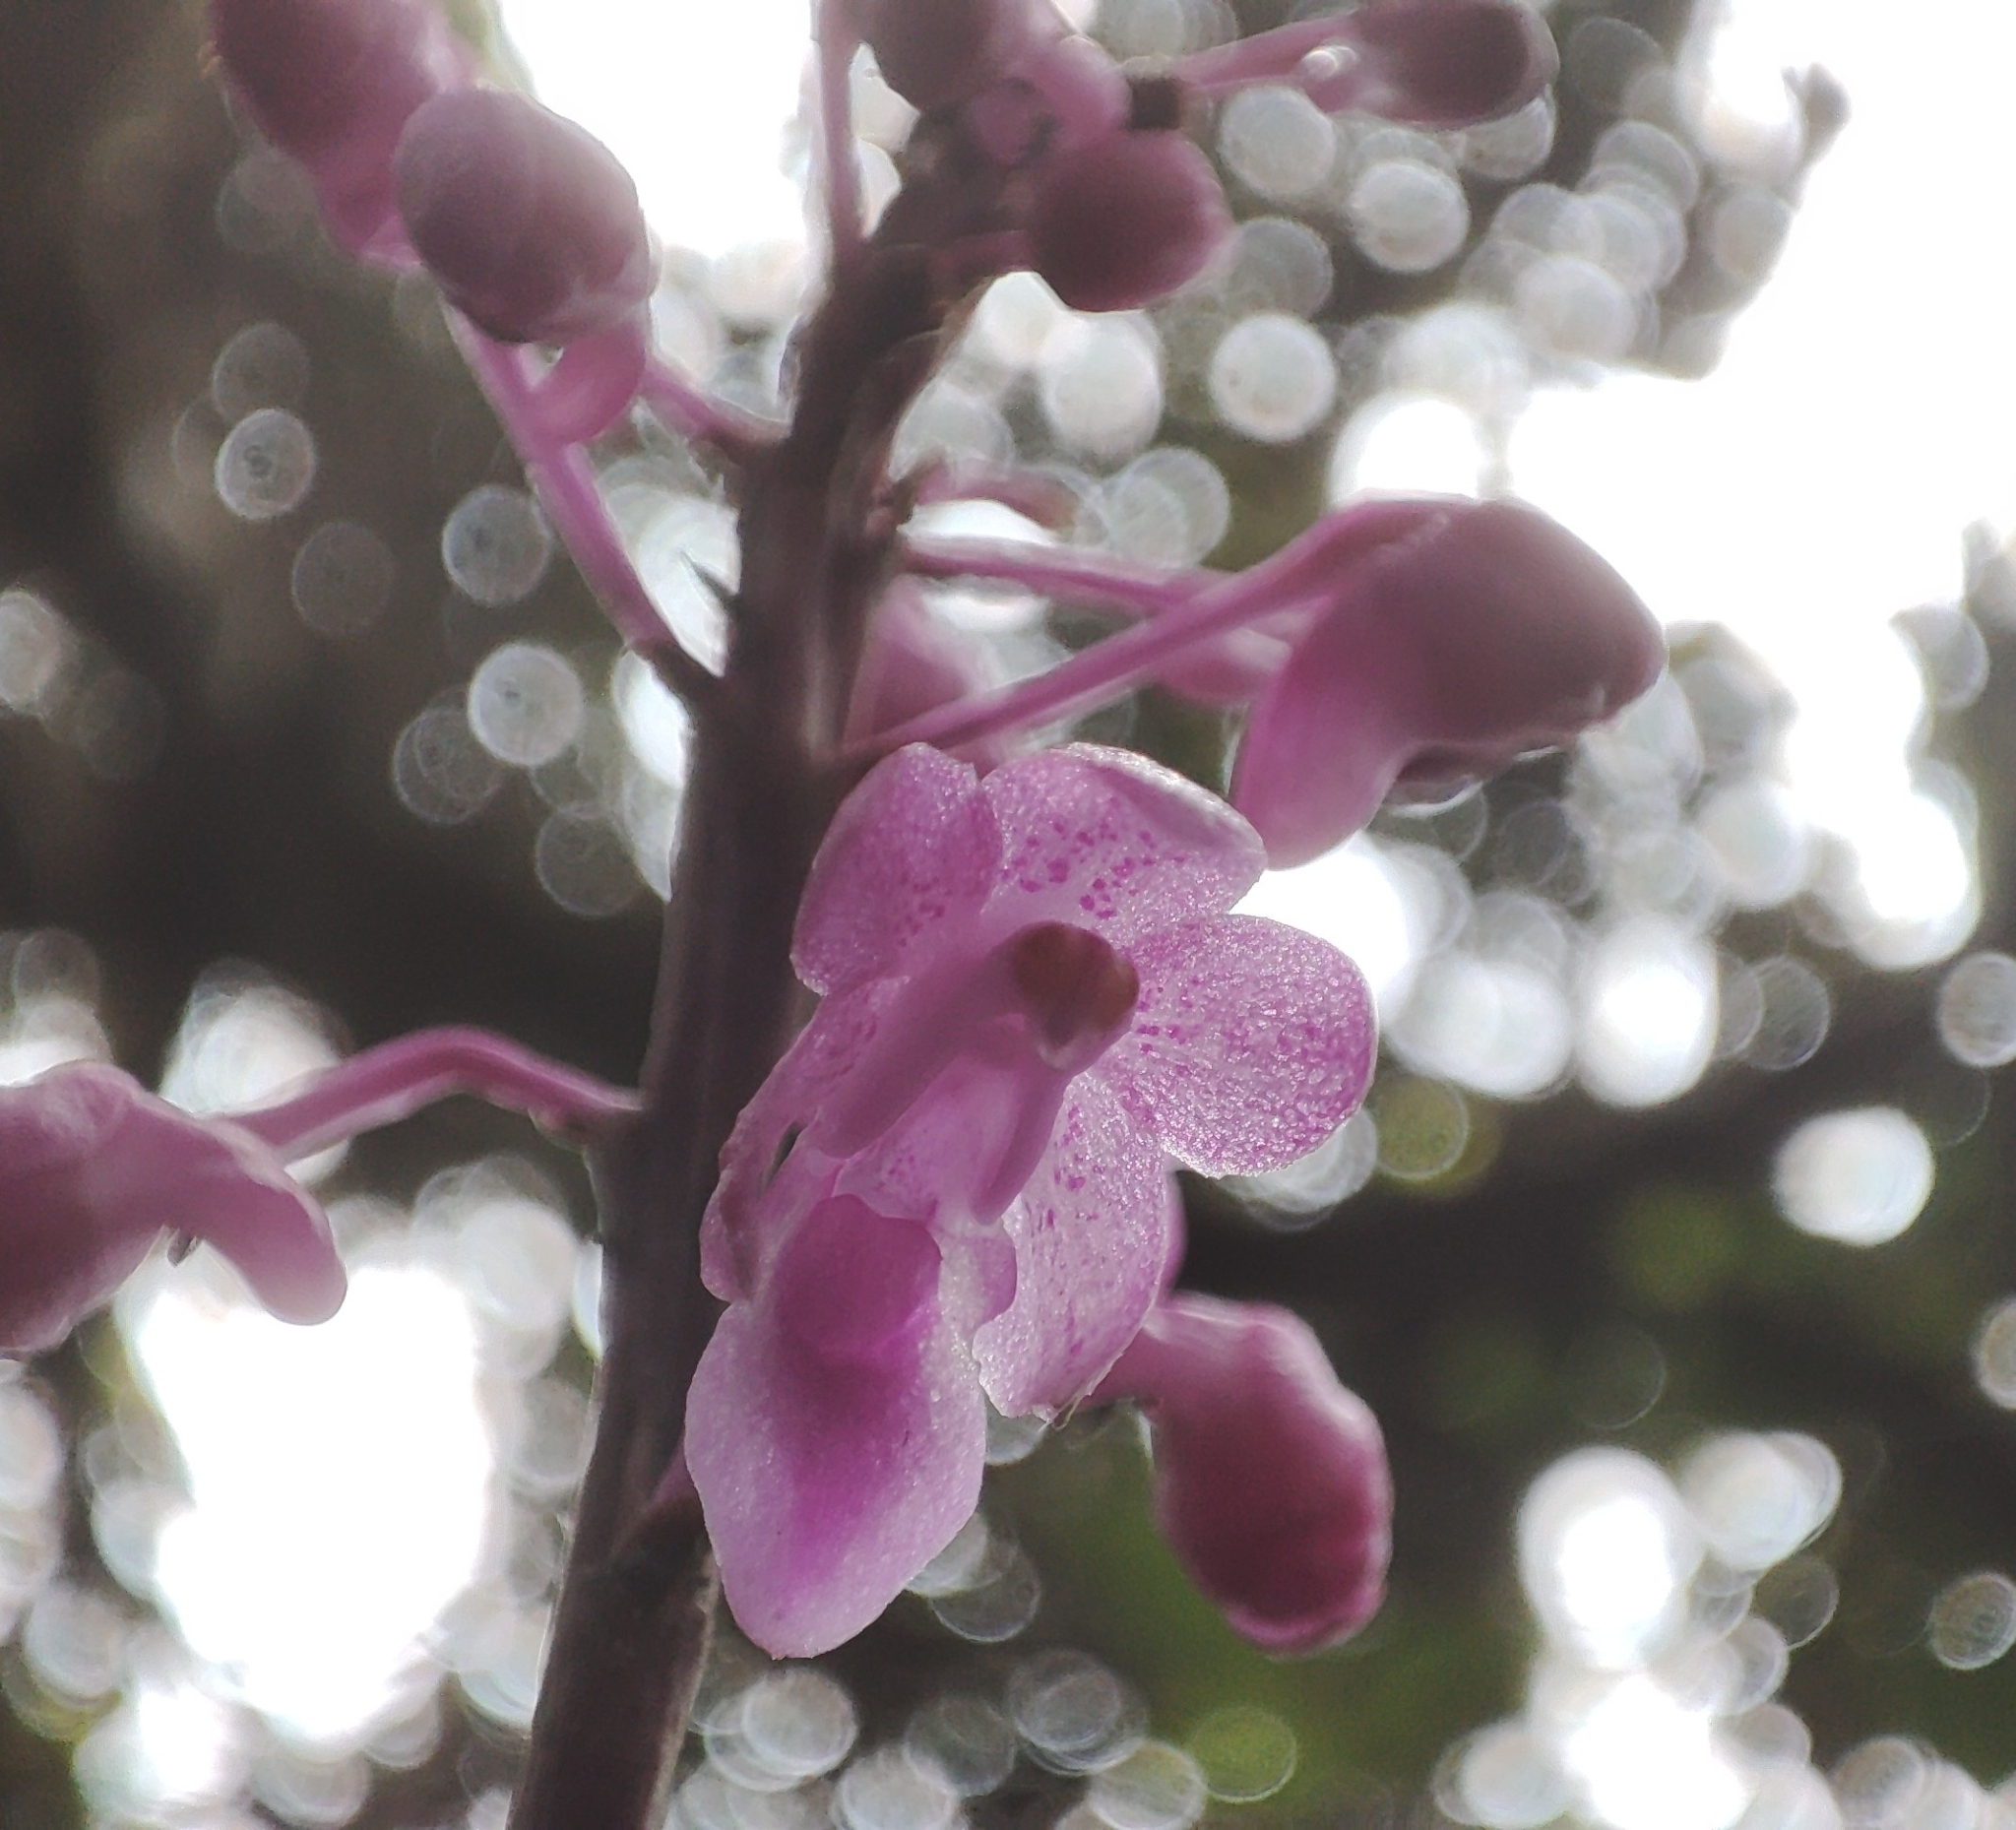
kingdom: Plantae
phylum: Tracheophyta
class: Liliopsida
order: Asparagales
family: Orchidaceae
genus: Aerides
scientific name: Aerides ringens
